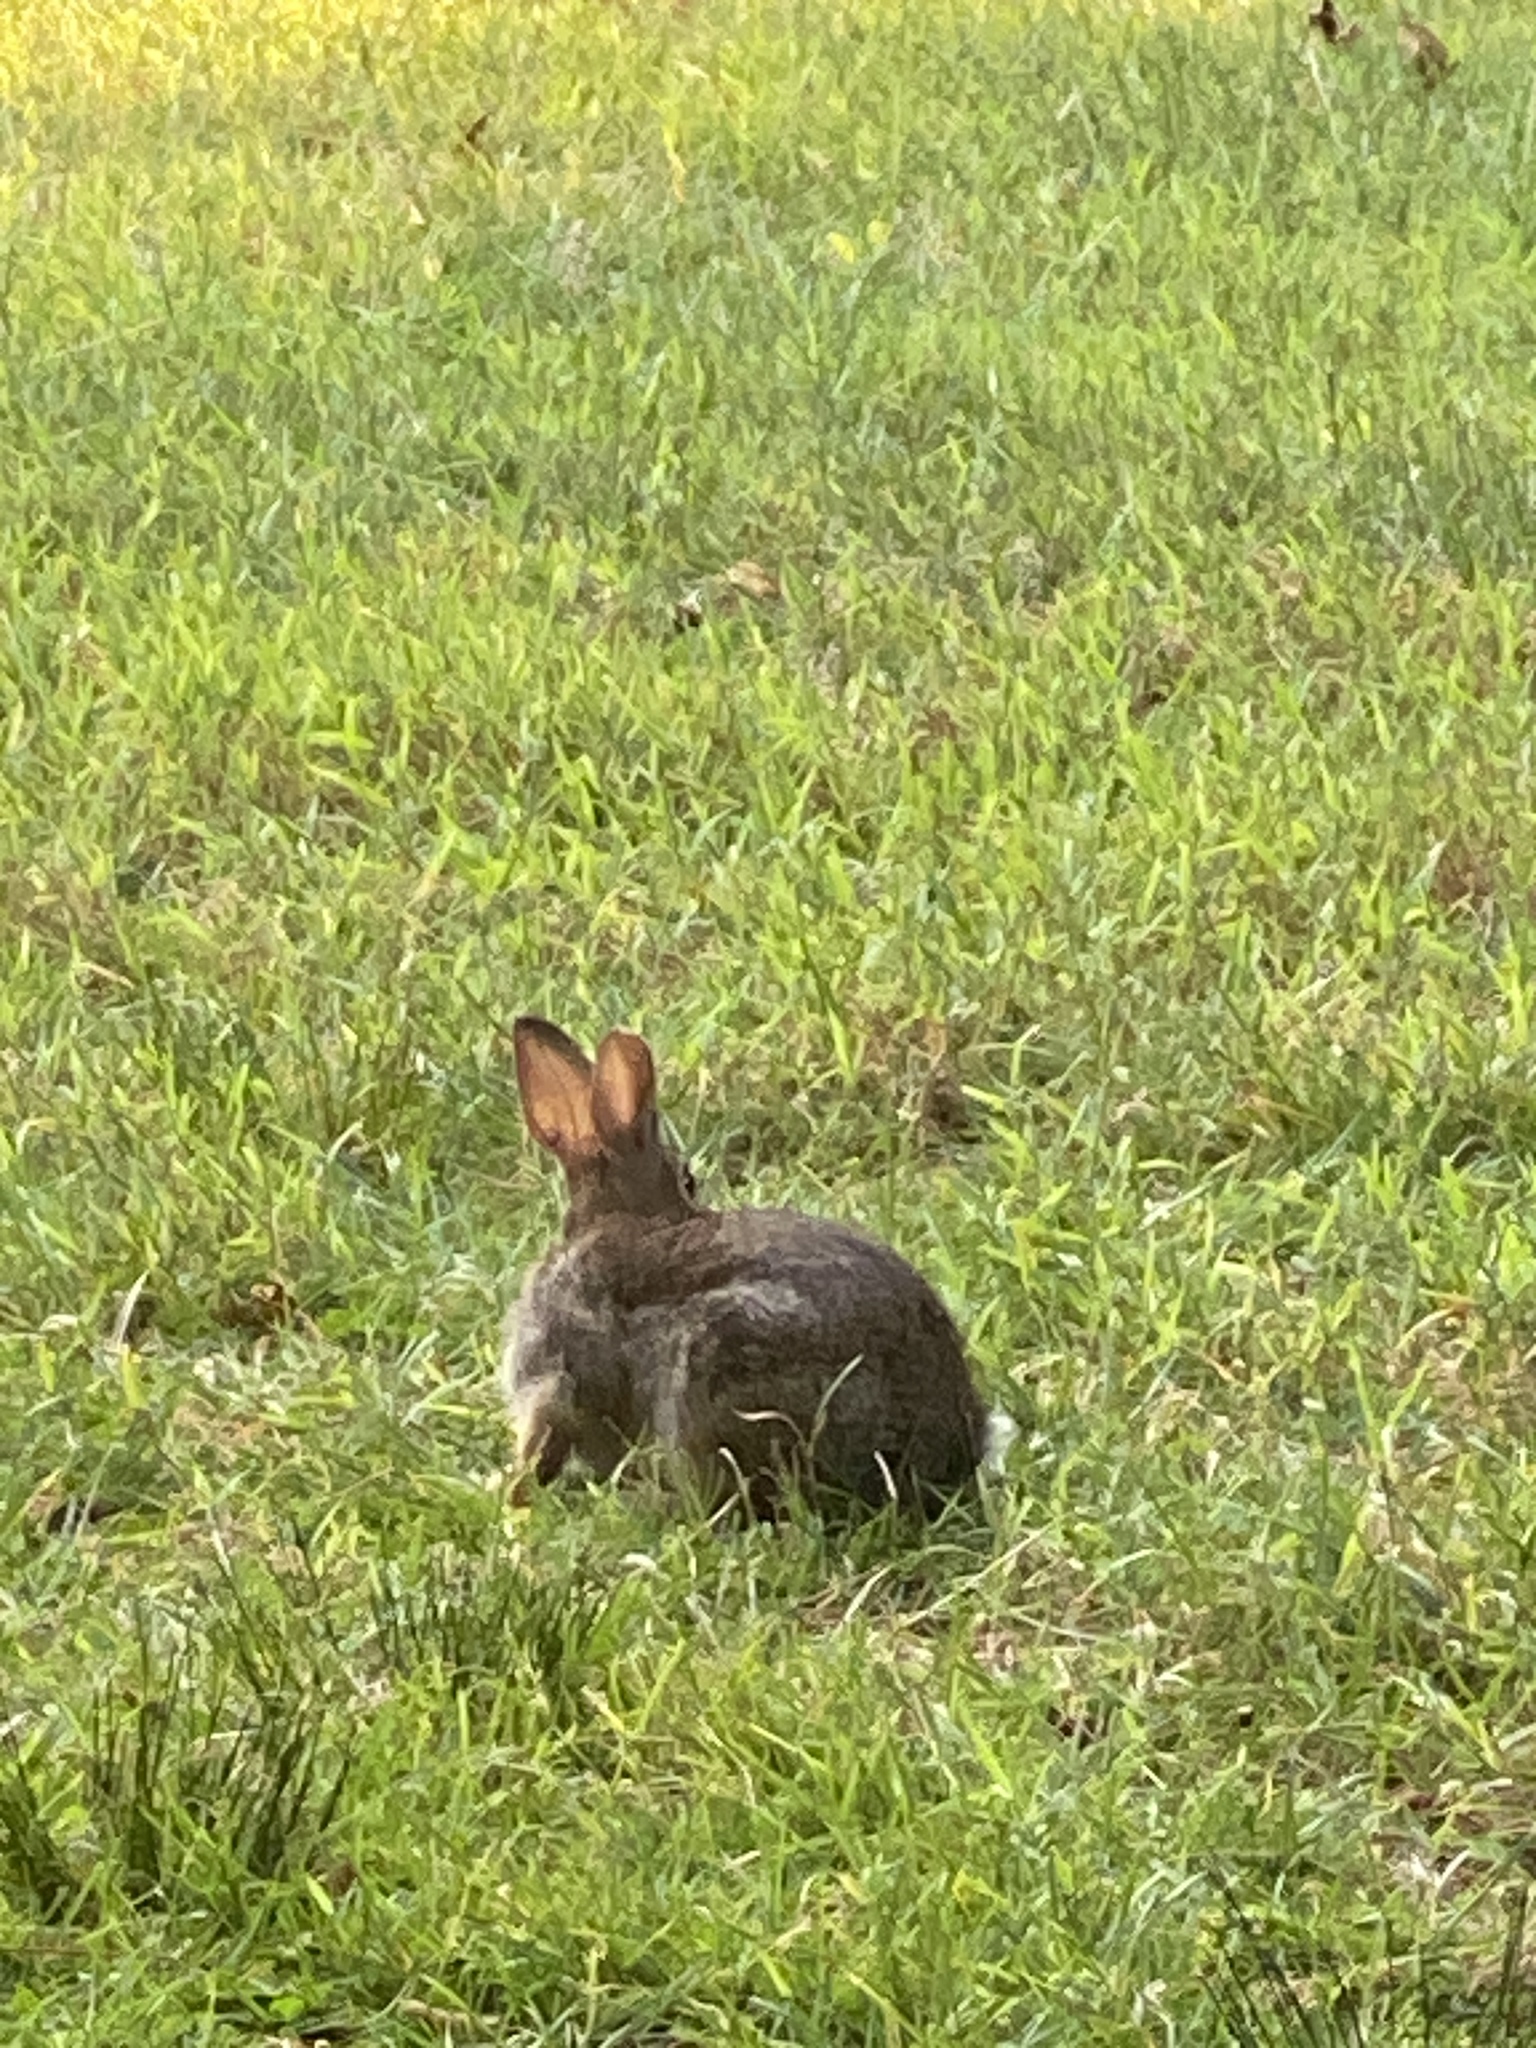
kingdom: Animalia
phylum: Chordata
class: Mammalia
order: Lagomorpha
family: Leporidae
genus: Sylvilagus
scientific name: Sylvilagus floridanus
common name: Eastern cottontail
